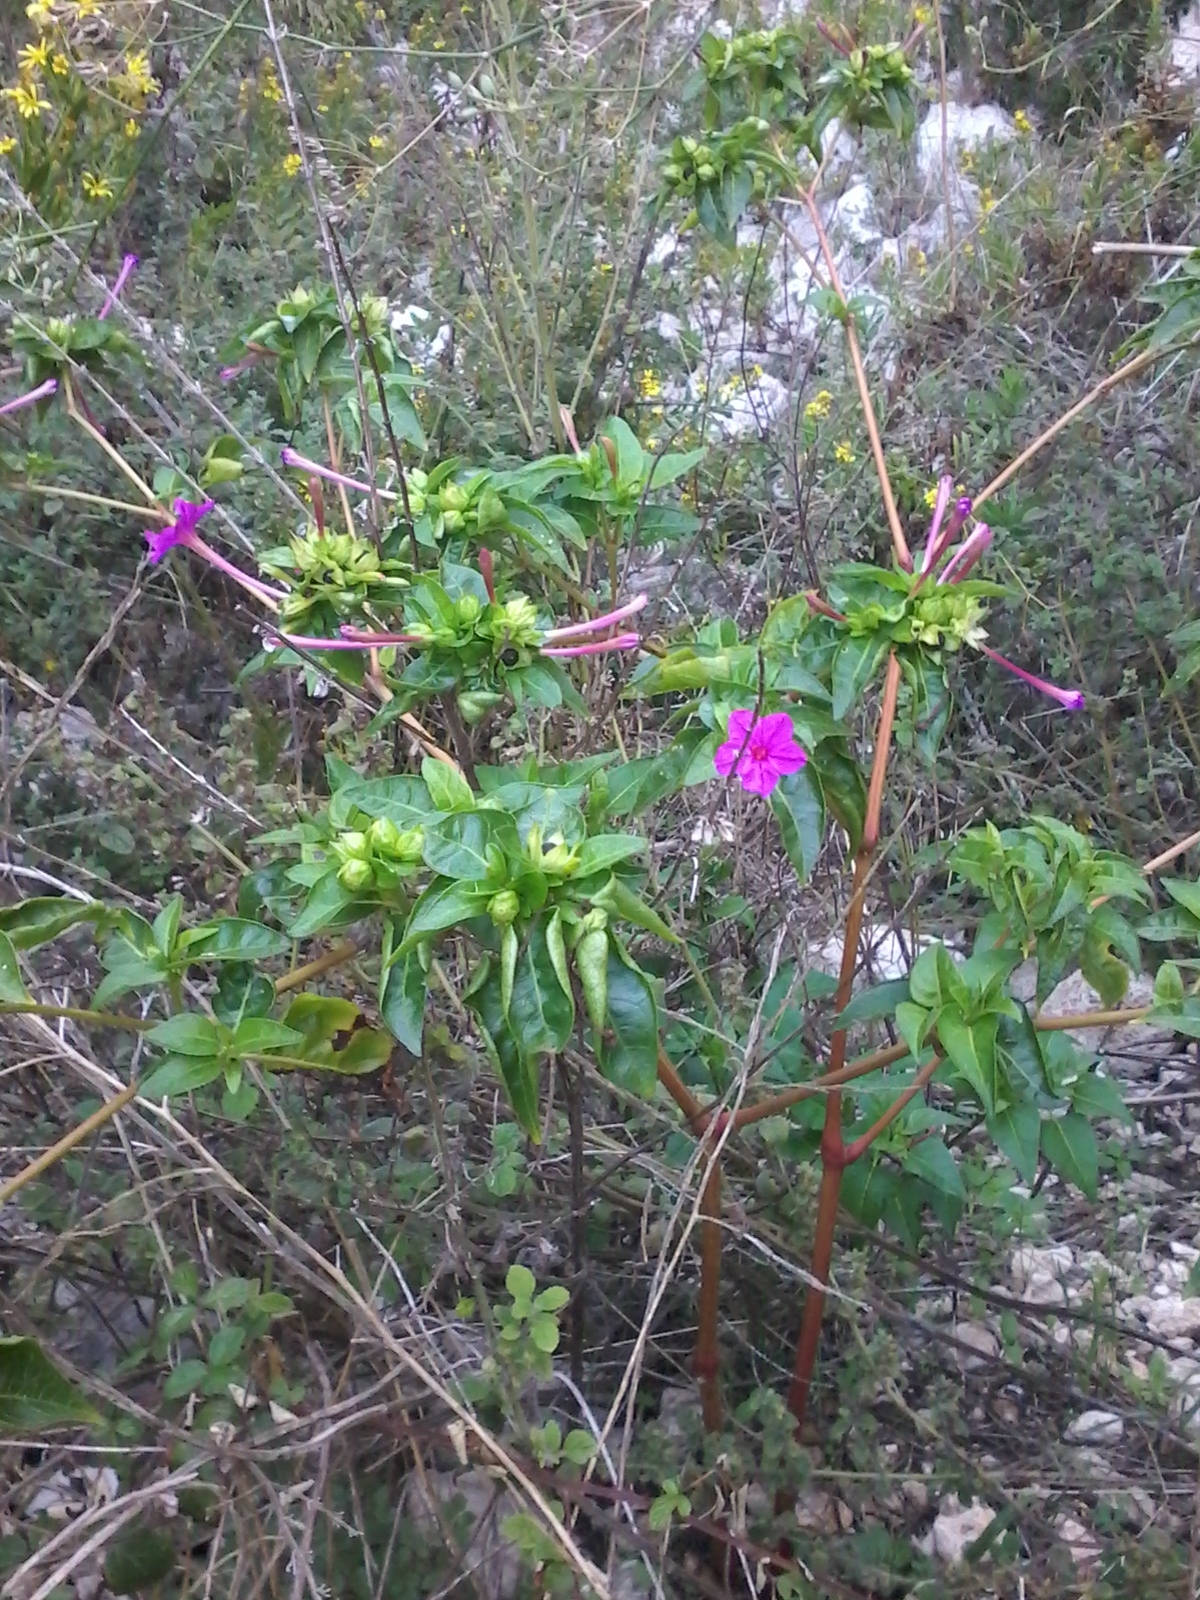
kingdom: Plantae
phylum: Tracheophyta
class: Magnoliopsida
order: Caryophyllales
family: Nyctaginaceae
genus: Mirabilis
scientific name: Mirabilis jalapa
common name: Marvel-of-peru
